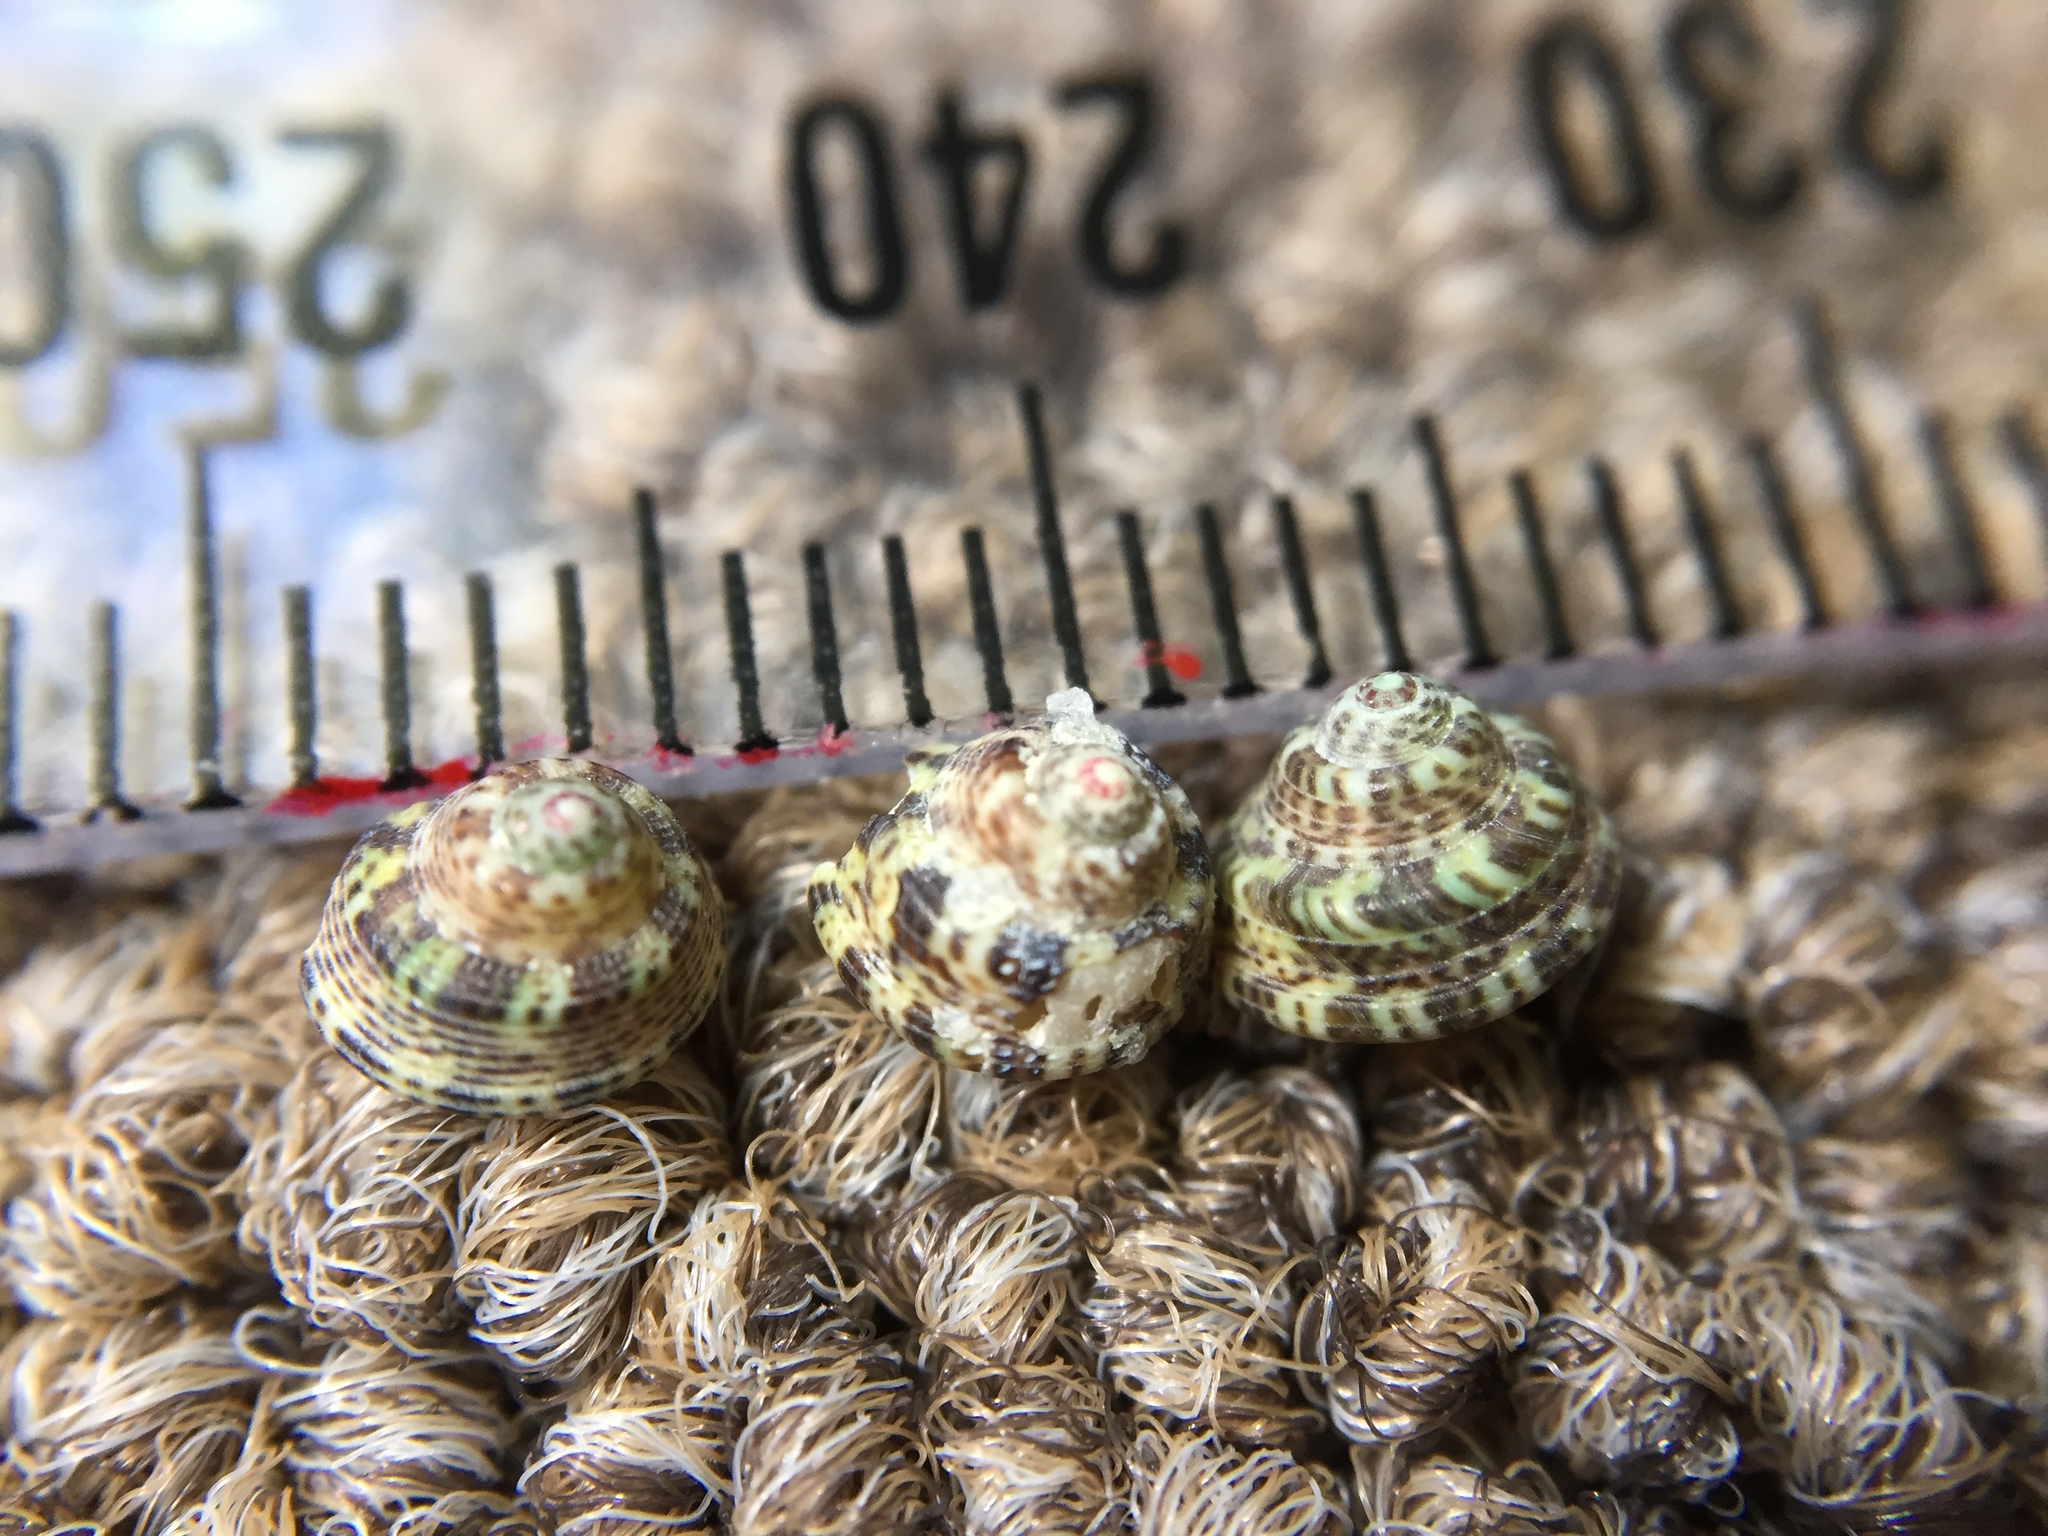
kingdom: Animalia
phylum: Mollusca
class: Gastropoda
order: Trochida
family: Trochidae
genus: Coelotrochus
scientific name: Coelotrochus oppressus
